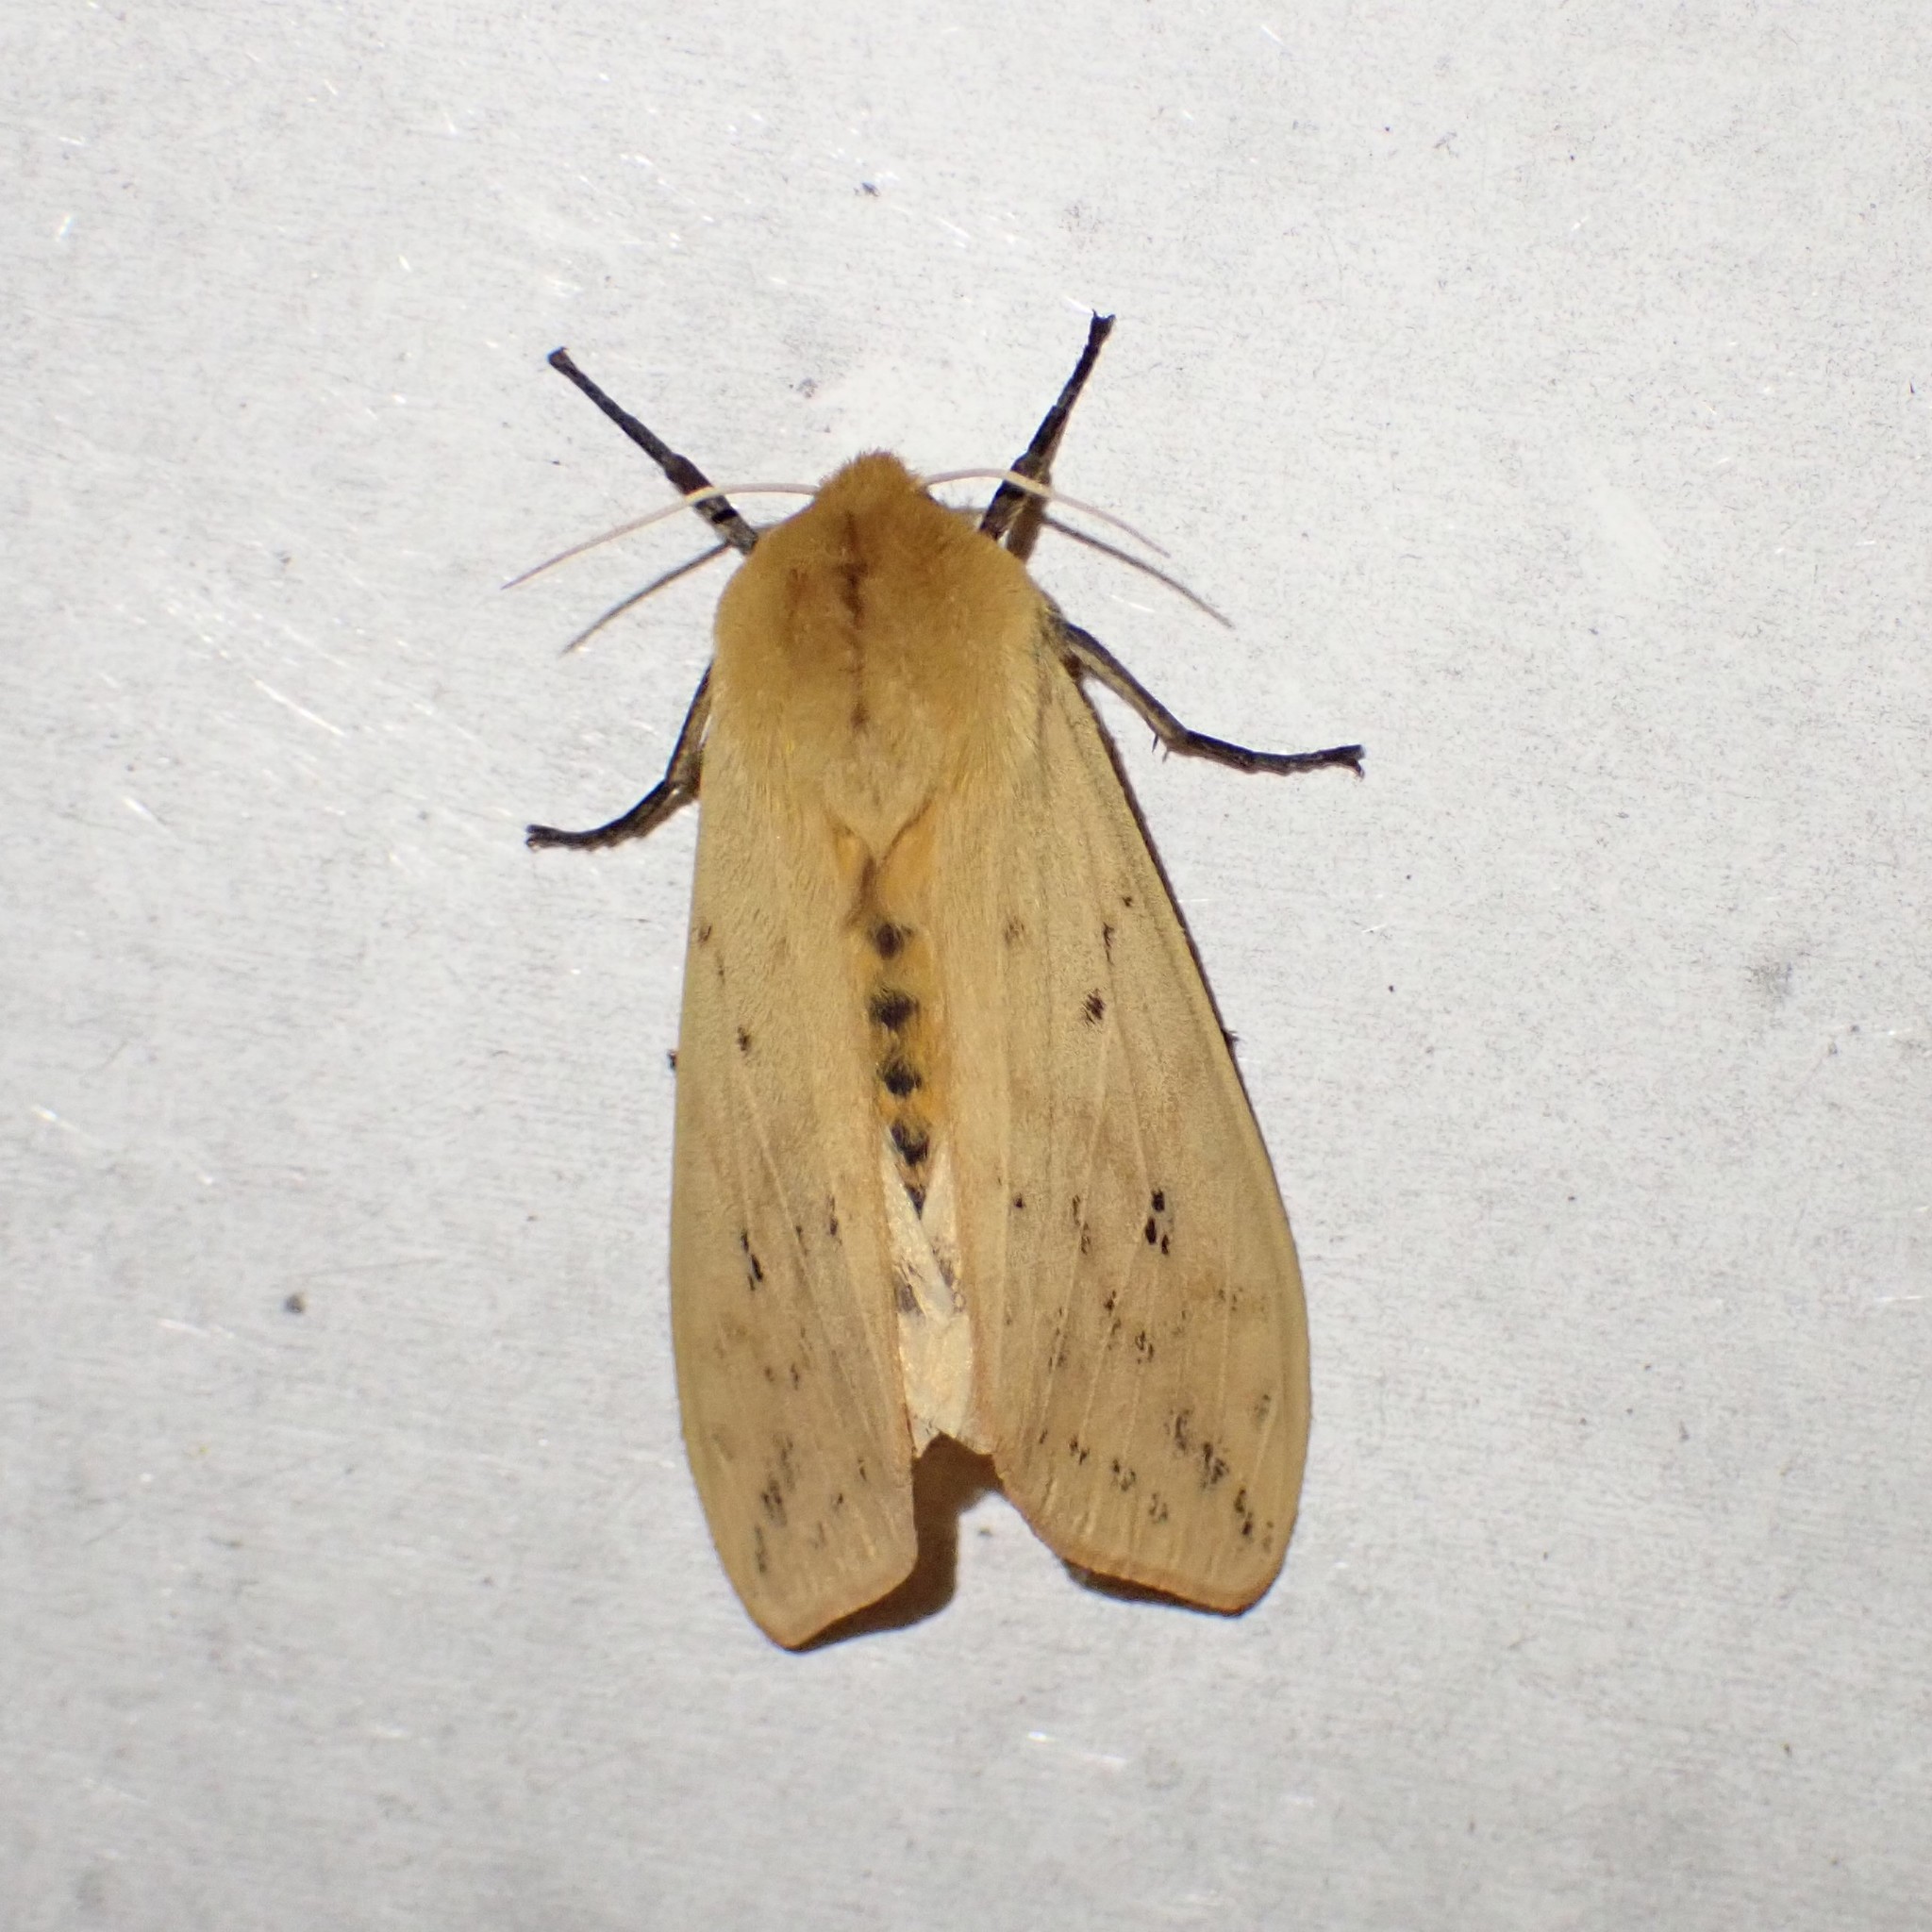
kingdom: Animalia
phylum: Arthropoda
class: Insecta
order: Lepidoptera
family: Erebidae
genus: Pyrrharctia
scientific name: Pyrrharctia isabella
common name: Isabella tiger moth
